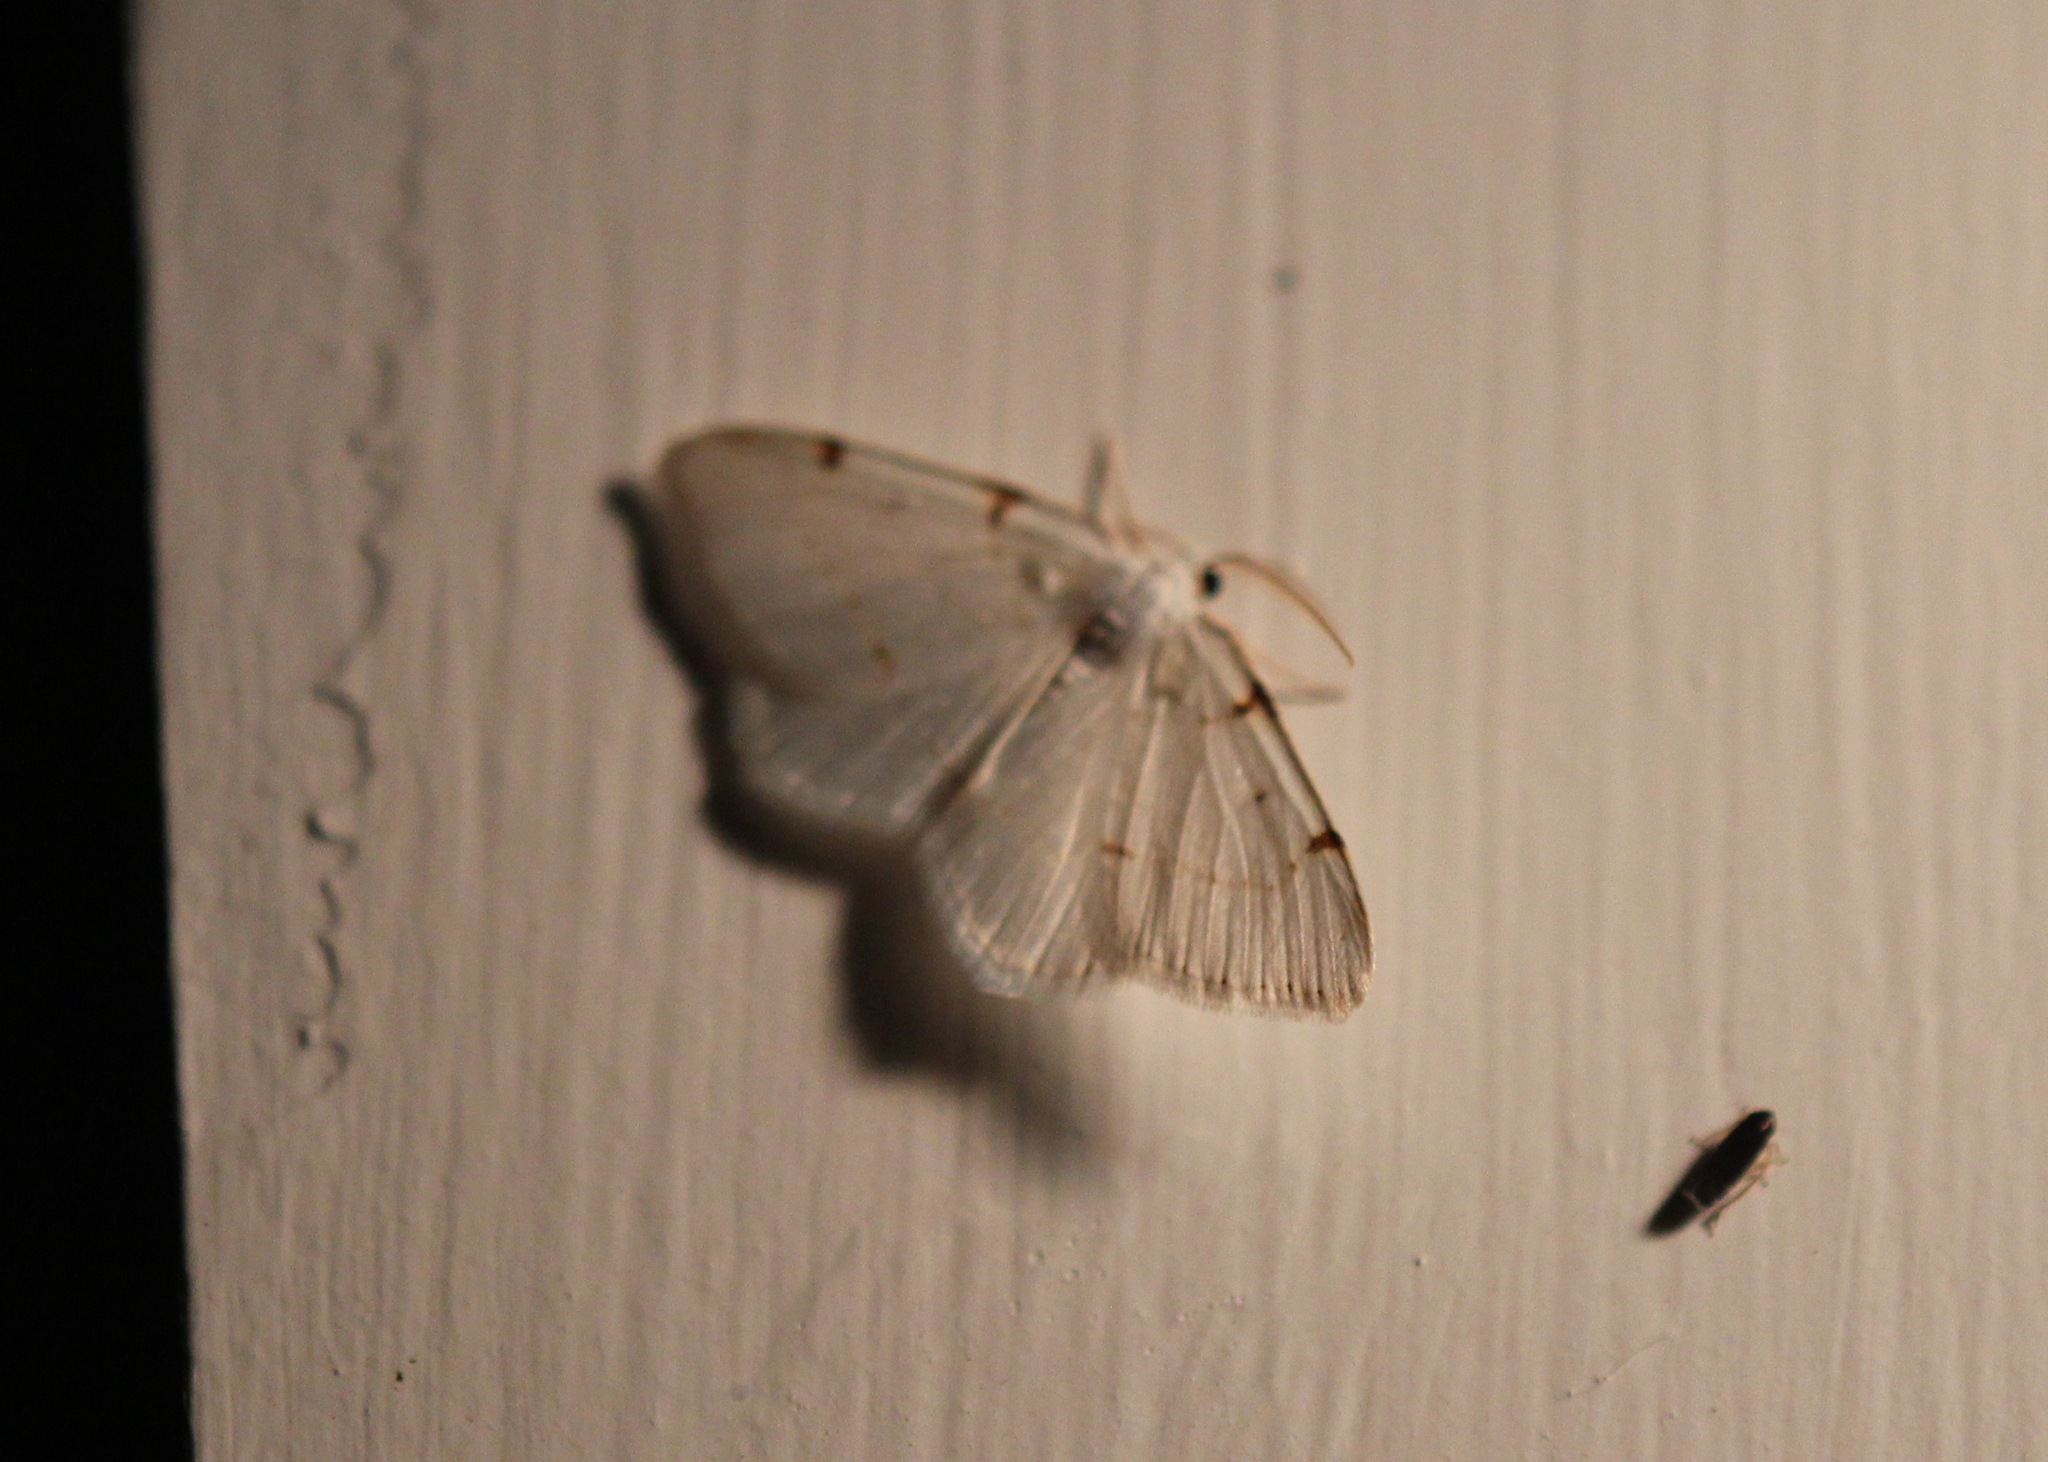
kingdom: Animalia
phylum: Arthropoda
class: Insecta
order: Lepidoptera
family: Geometridae
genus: Macaria
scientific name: Macaria pustularia
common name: Lesser maple spanworm moth
